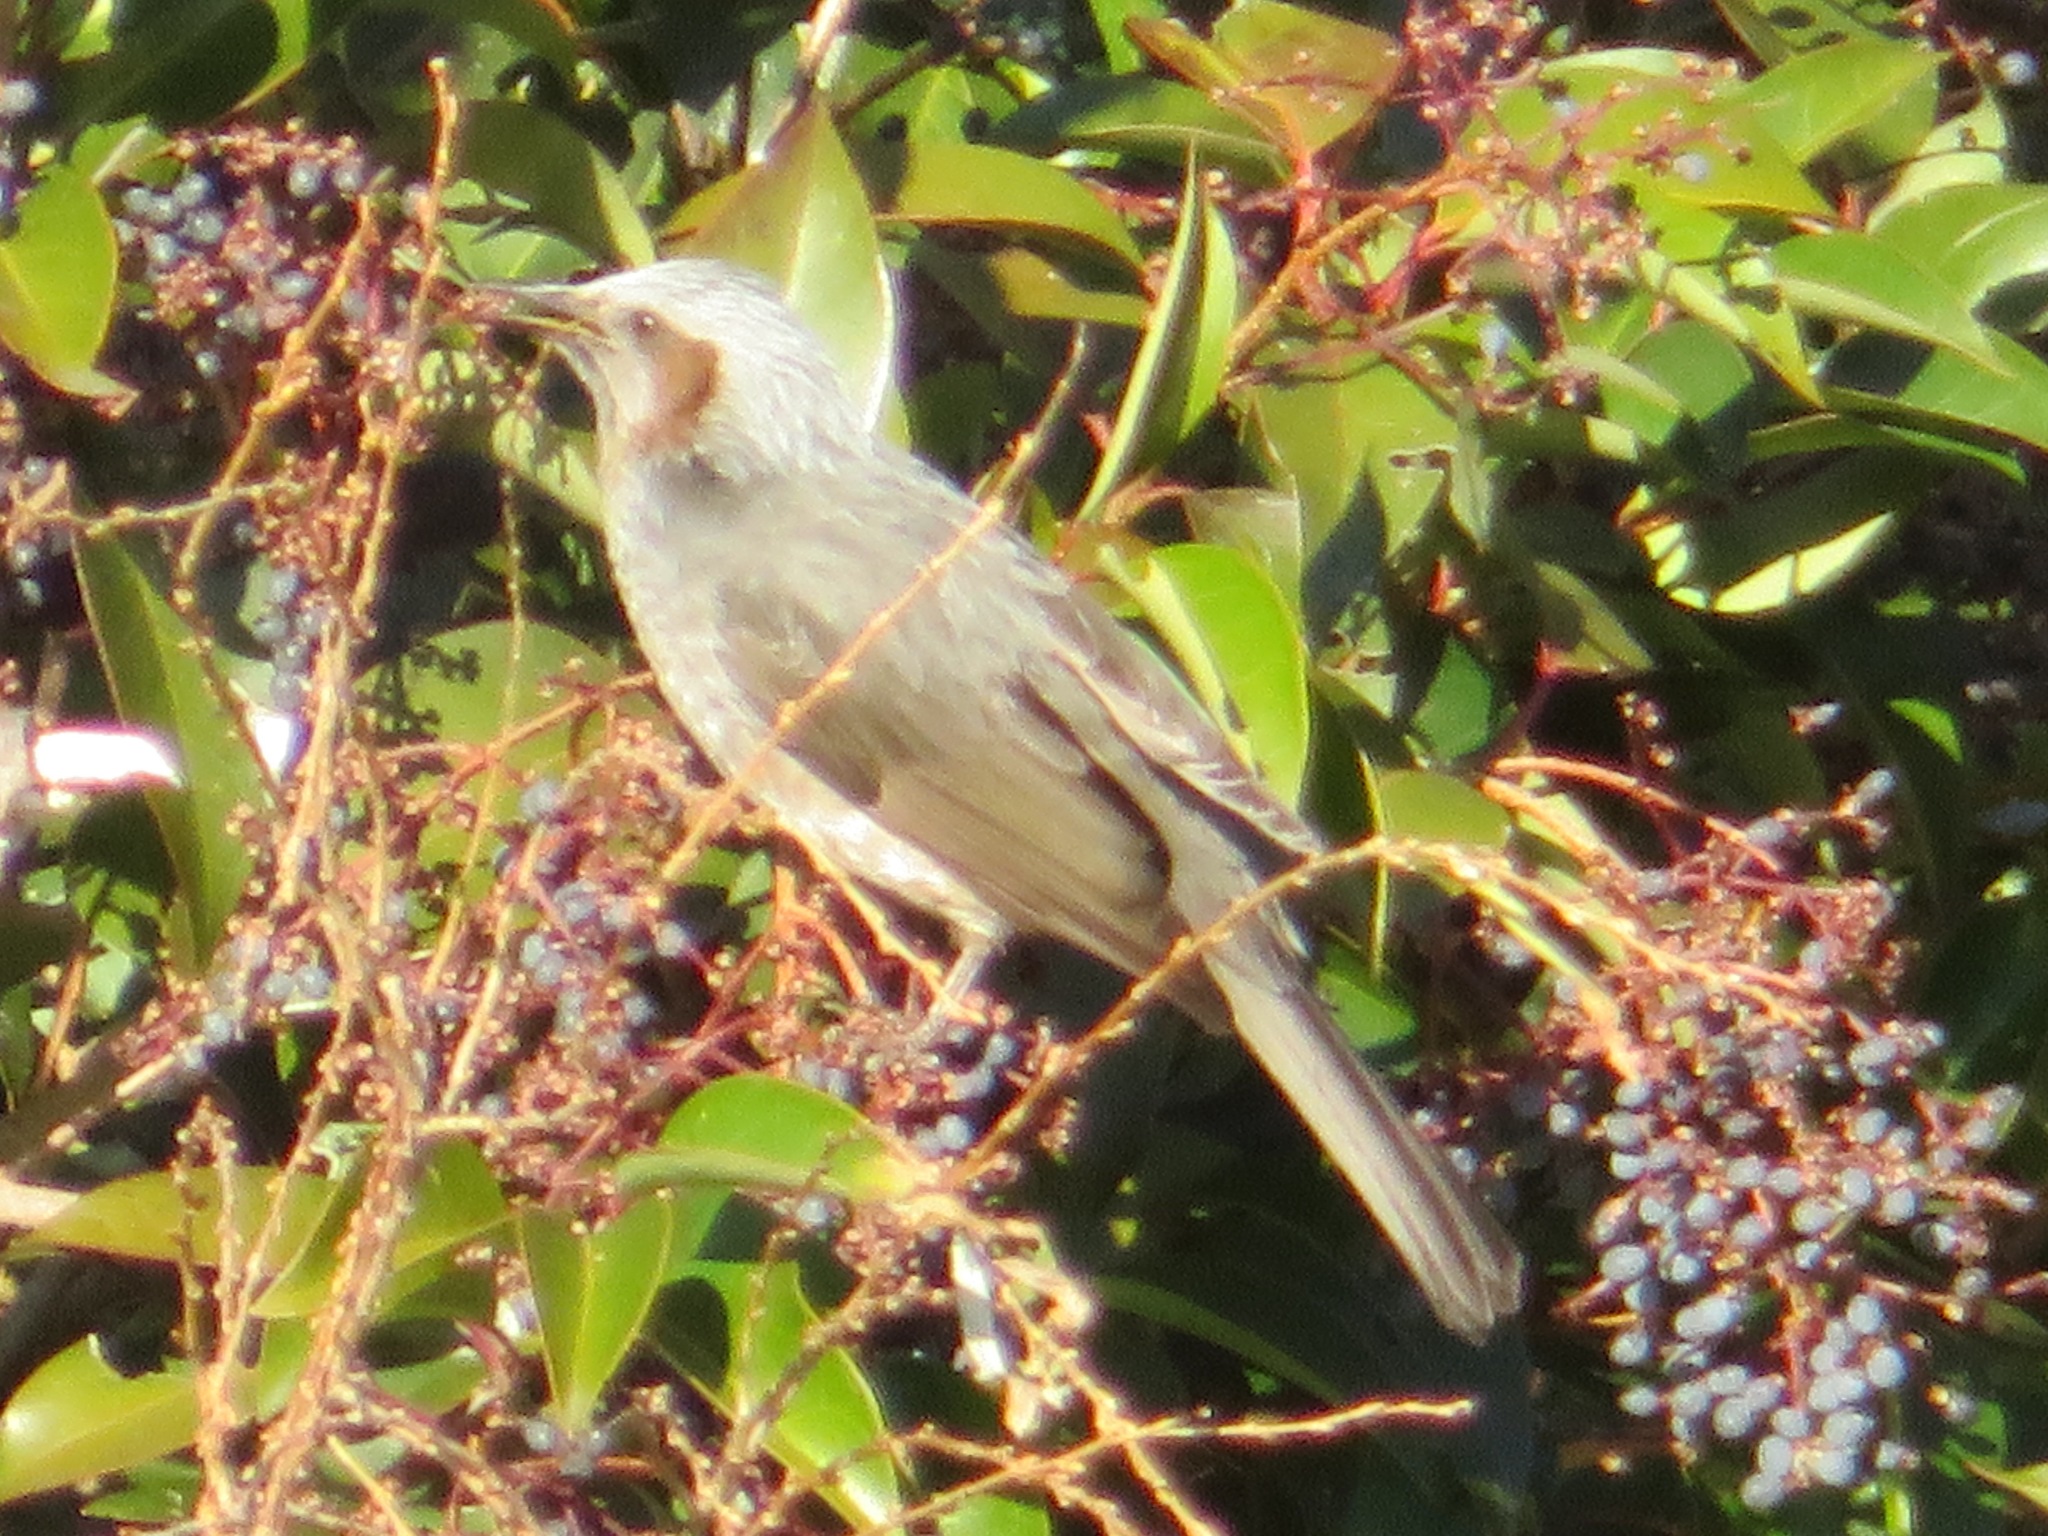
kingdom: Animalia
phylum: Chordata
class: Aves
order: Passeriformes
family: Pycnonotidae
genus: Hypsipetes
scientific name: Hypsipetes amaurotis
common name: Brown-eared bulbul
